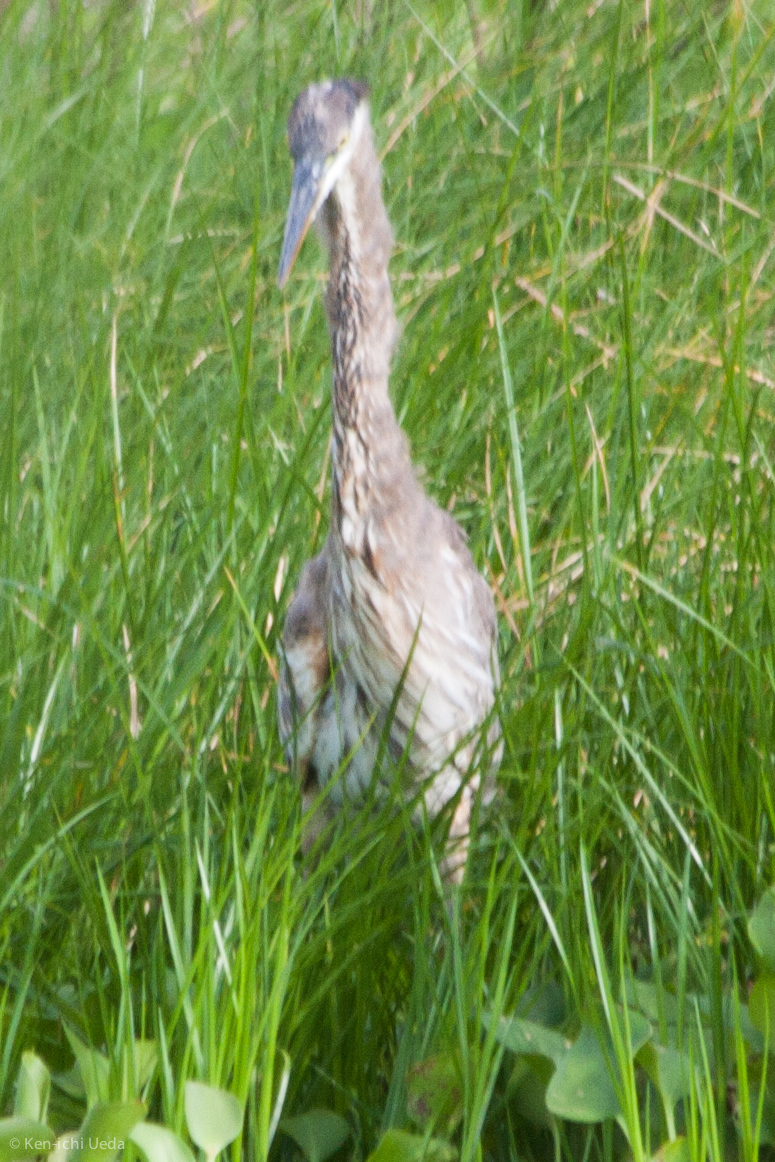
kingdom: Animalia
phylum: Chordata
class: Aves
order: Pelecaniformes
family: Ardeidae
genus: Ardea
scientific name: Ardea herodias
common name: Great blue heron
